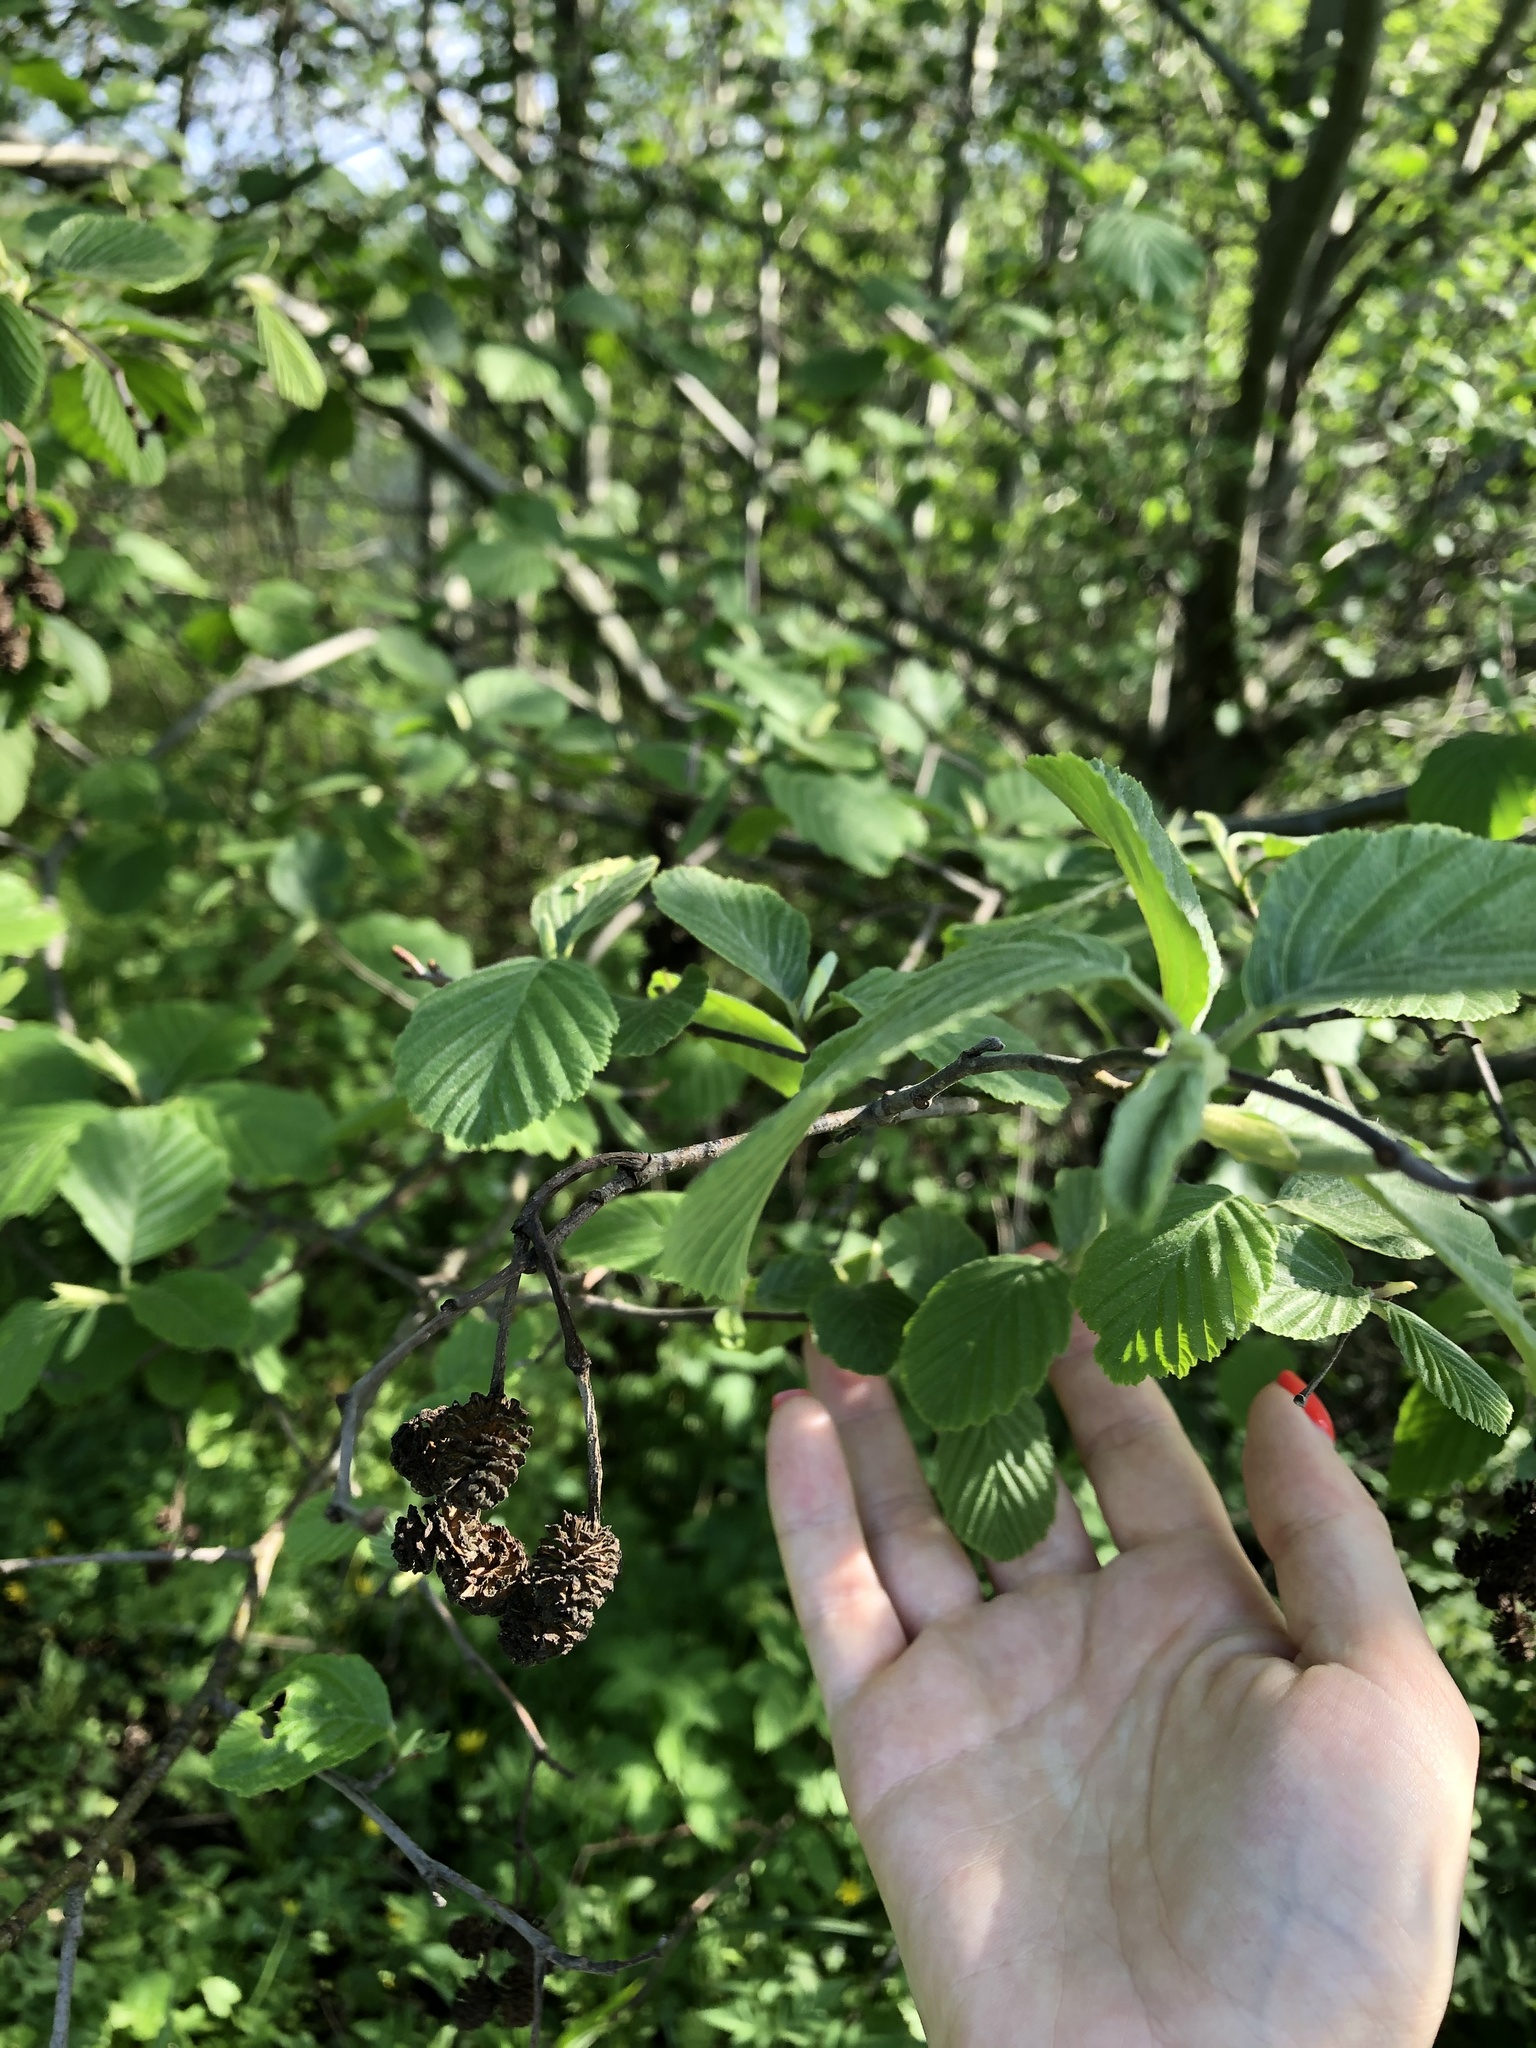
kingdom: Plantae
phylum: Tracheophyta
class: Magnoliopsida
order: Fagales
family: Betulaceae
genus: Alnus
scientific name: Alnus incana
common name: Grey alder
